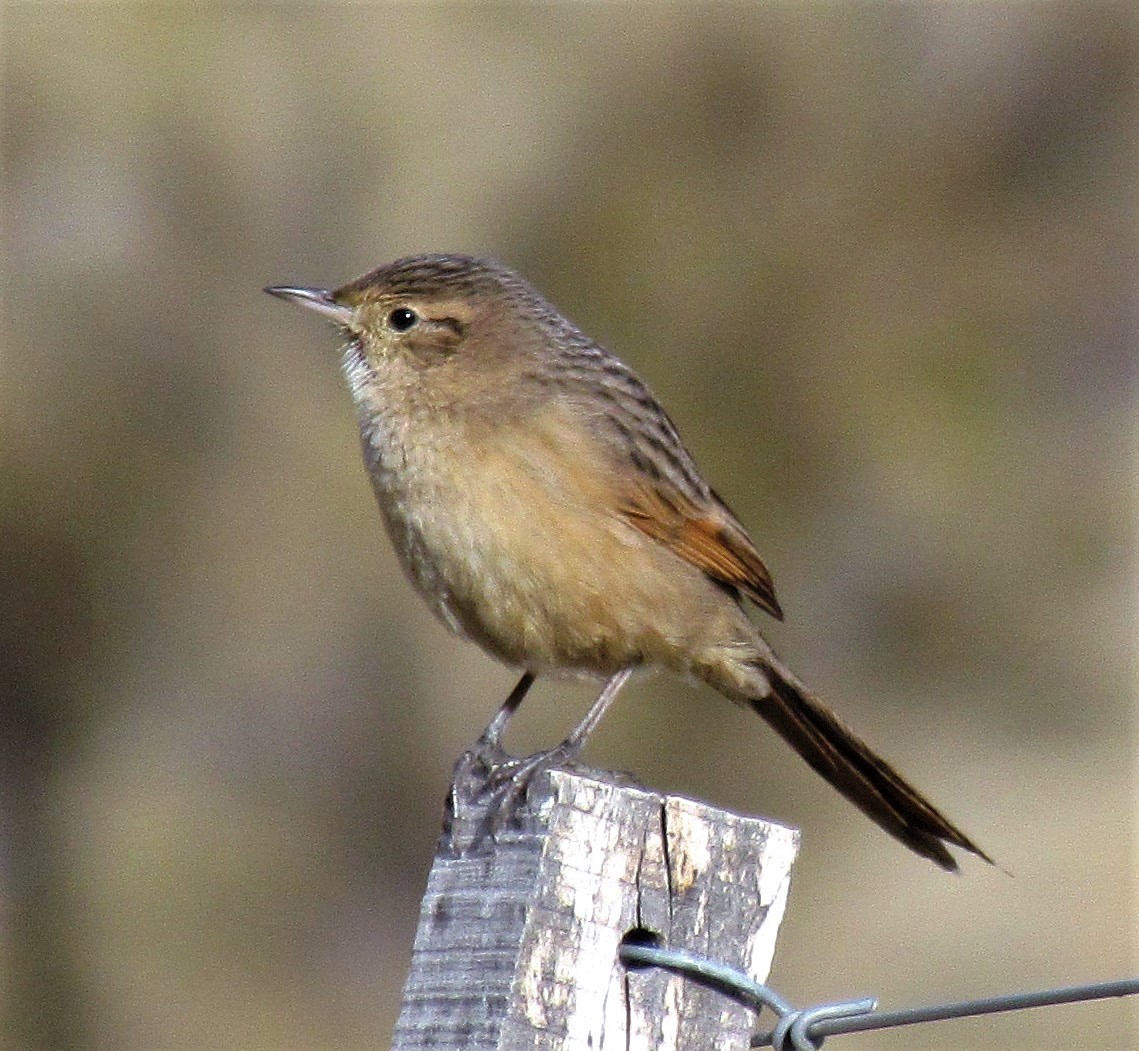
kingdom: Animalia
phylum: Chordata
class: Aves
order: Passeriformes
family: Furnariidae
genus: Asthenes
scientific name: Asthenes wyatti
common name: Streak-backed canastero
